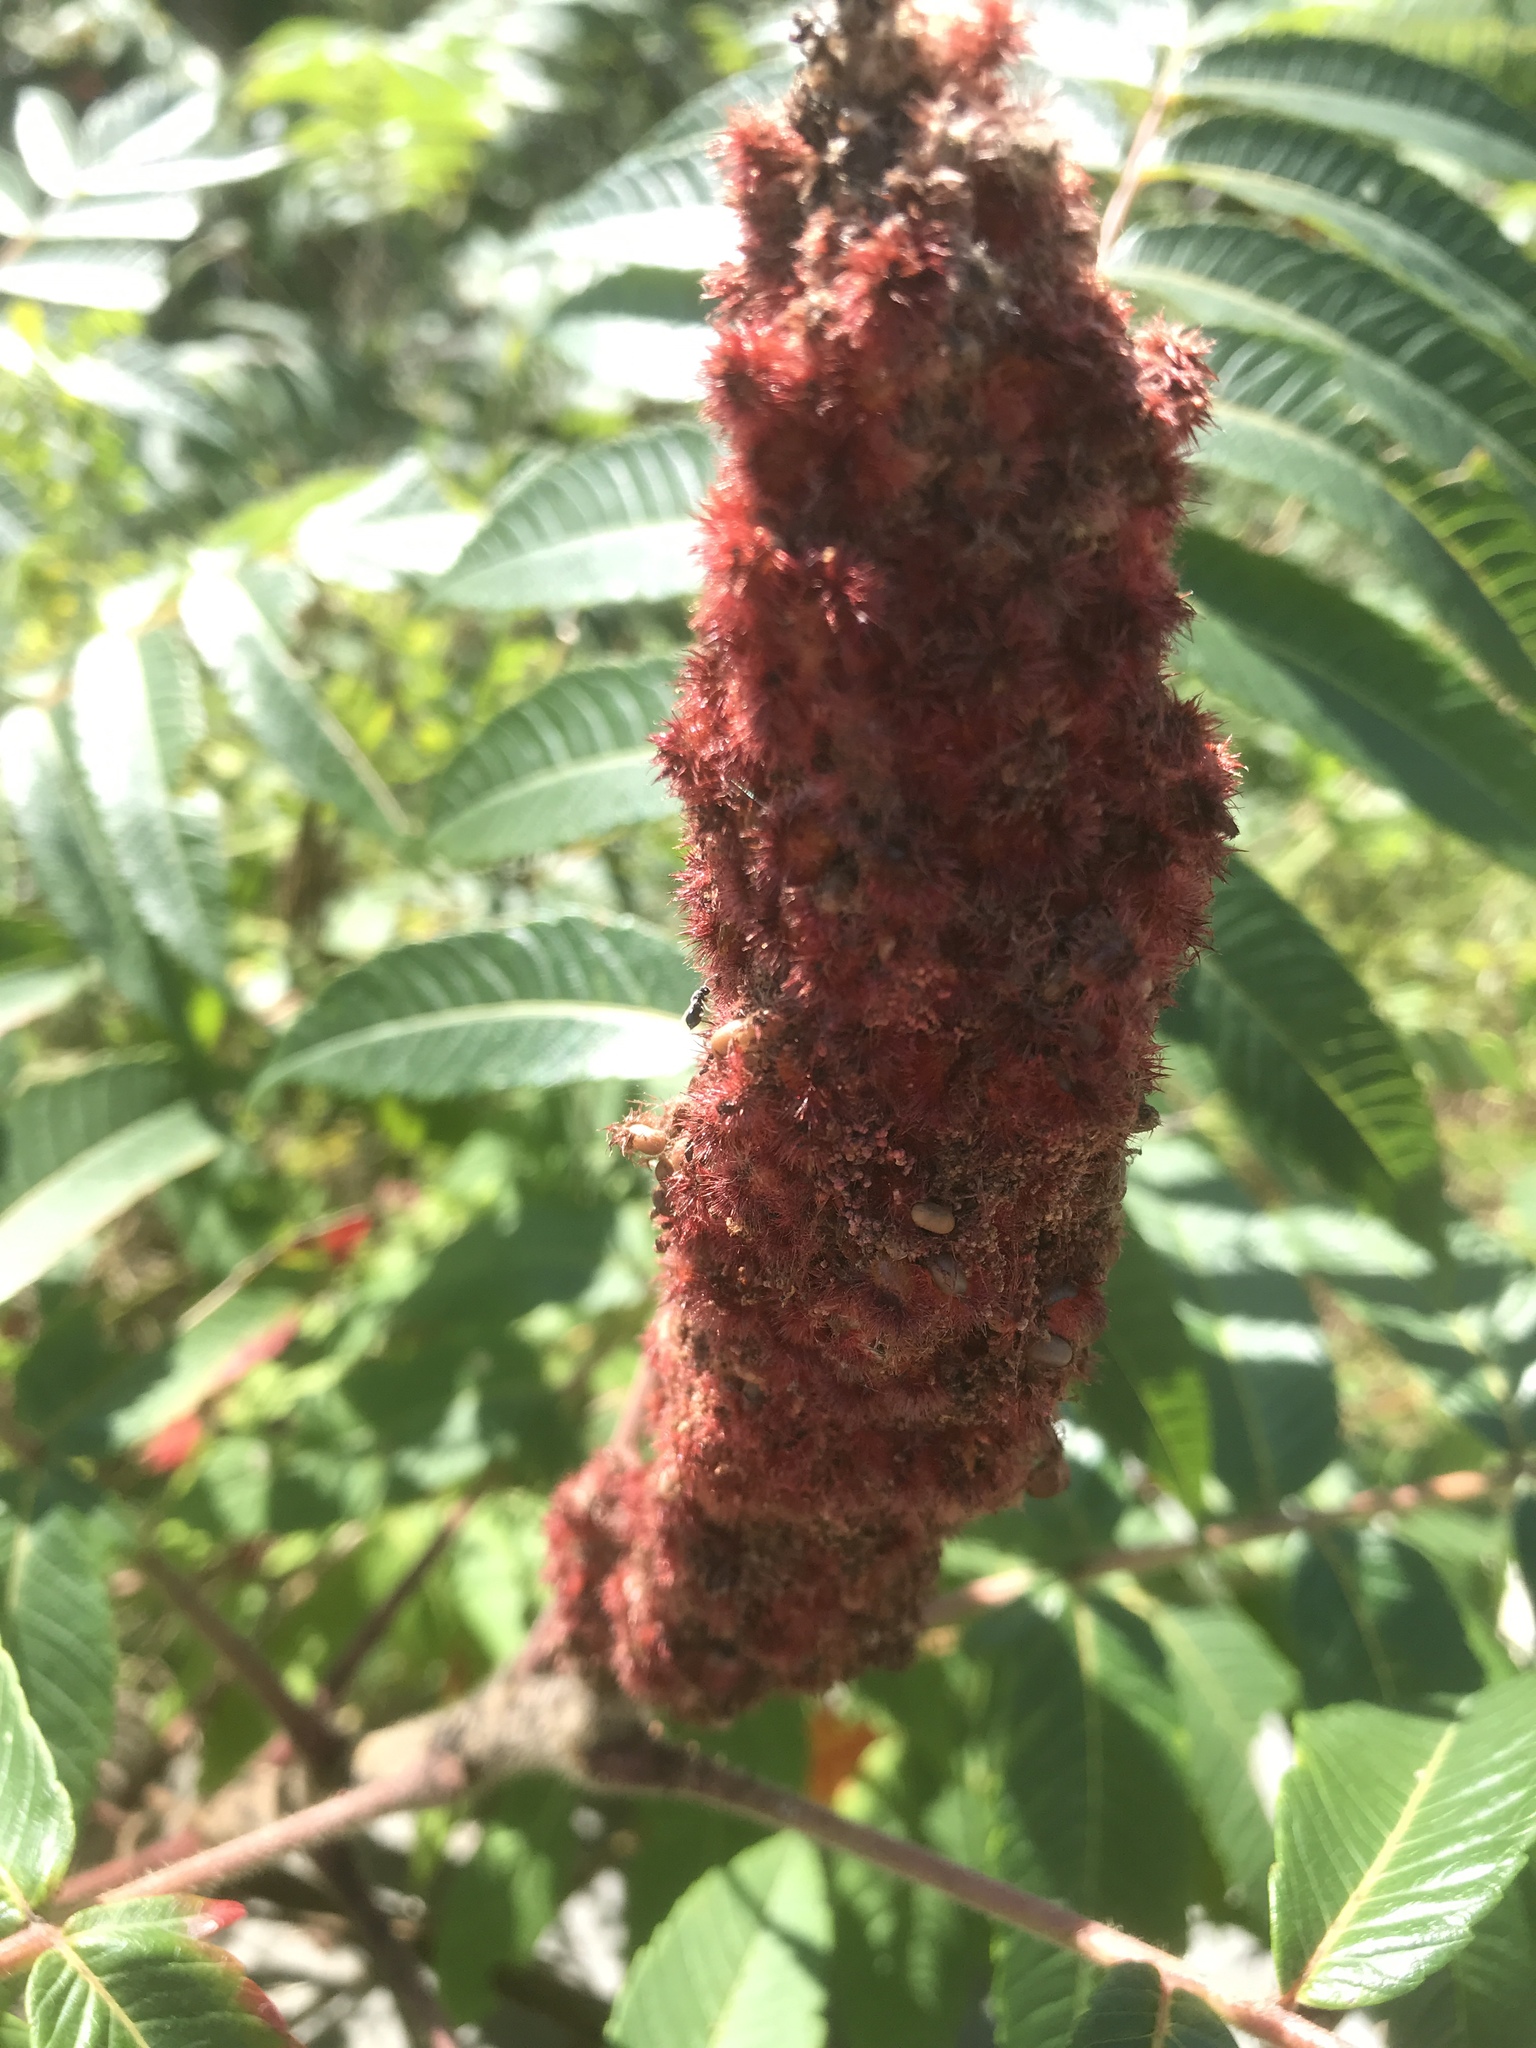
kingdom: Plantae
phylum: Tracheophyta
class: Magnoliopsida
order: Sapindales
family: Anacardiaceae
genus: Rhus
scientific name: Rhus typhina
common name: Staghorn sumac
